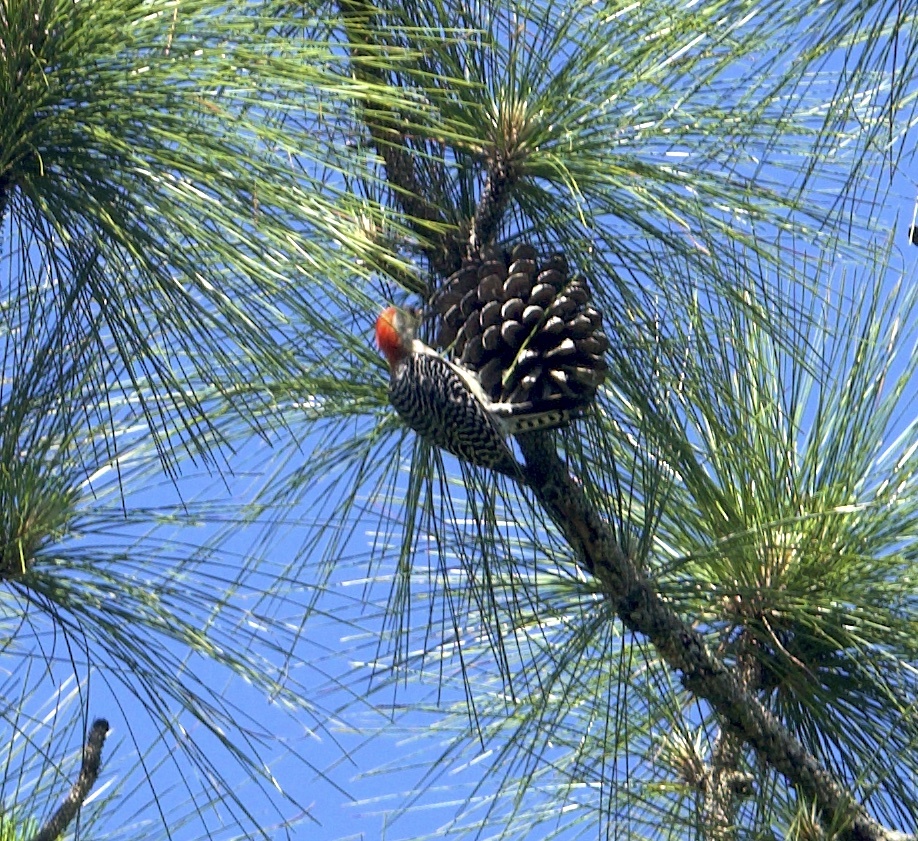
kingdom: Animalia
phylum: Chordata
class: Aves
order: Piciformes
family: Picidae
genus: Melanerpes
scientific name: Melanerpes carolinus
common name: Red-bellied woodpecker
